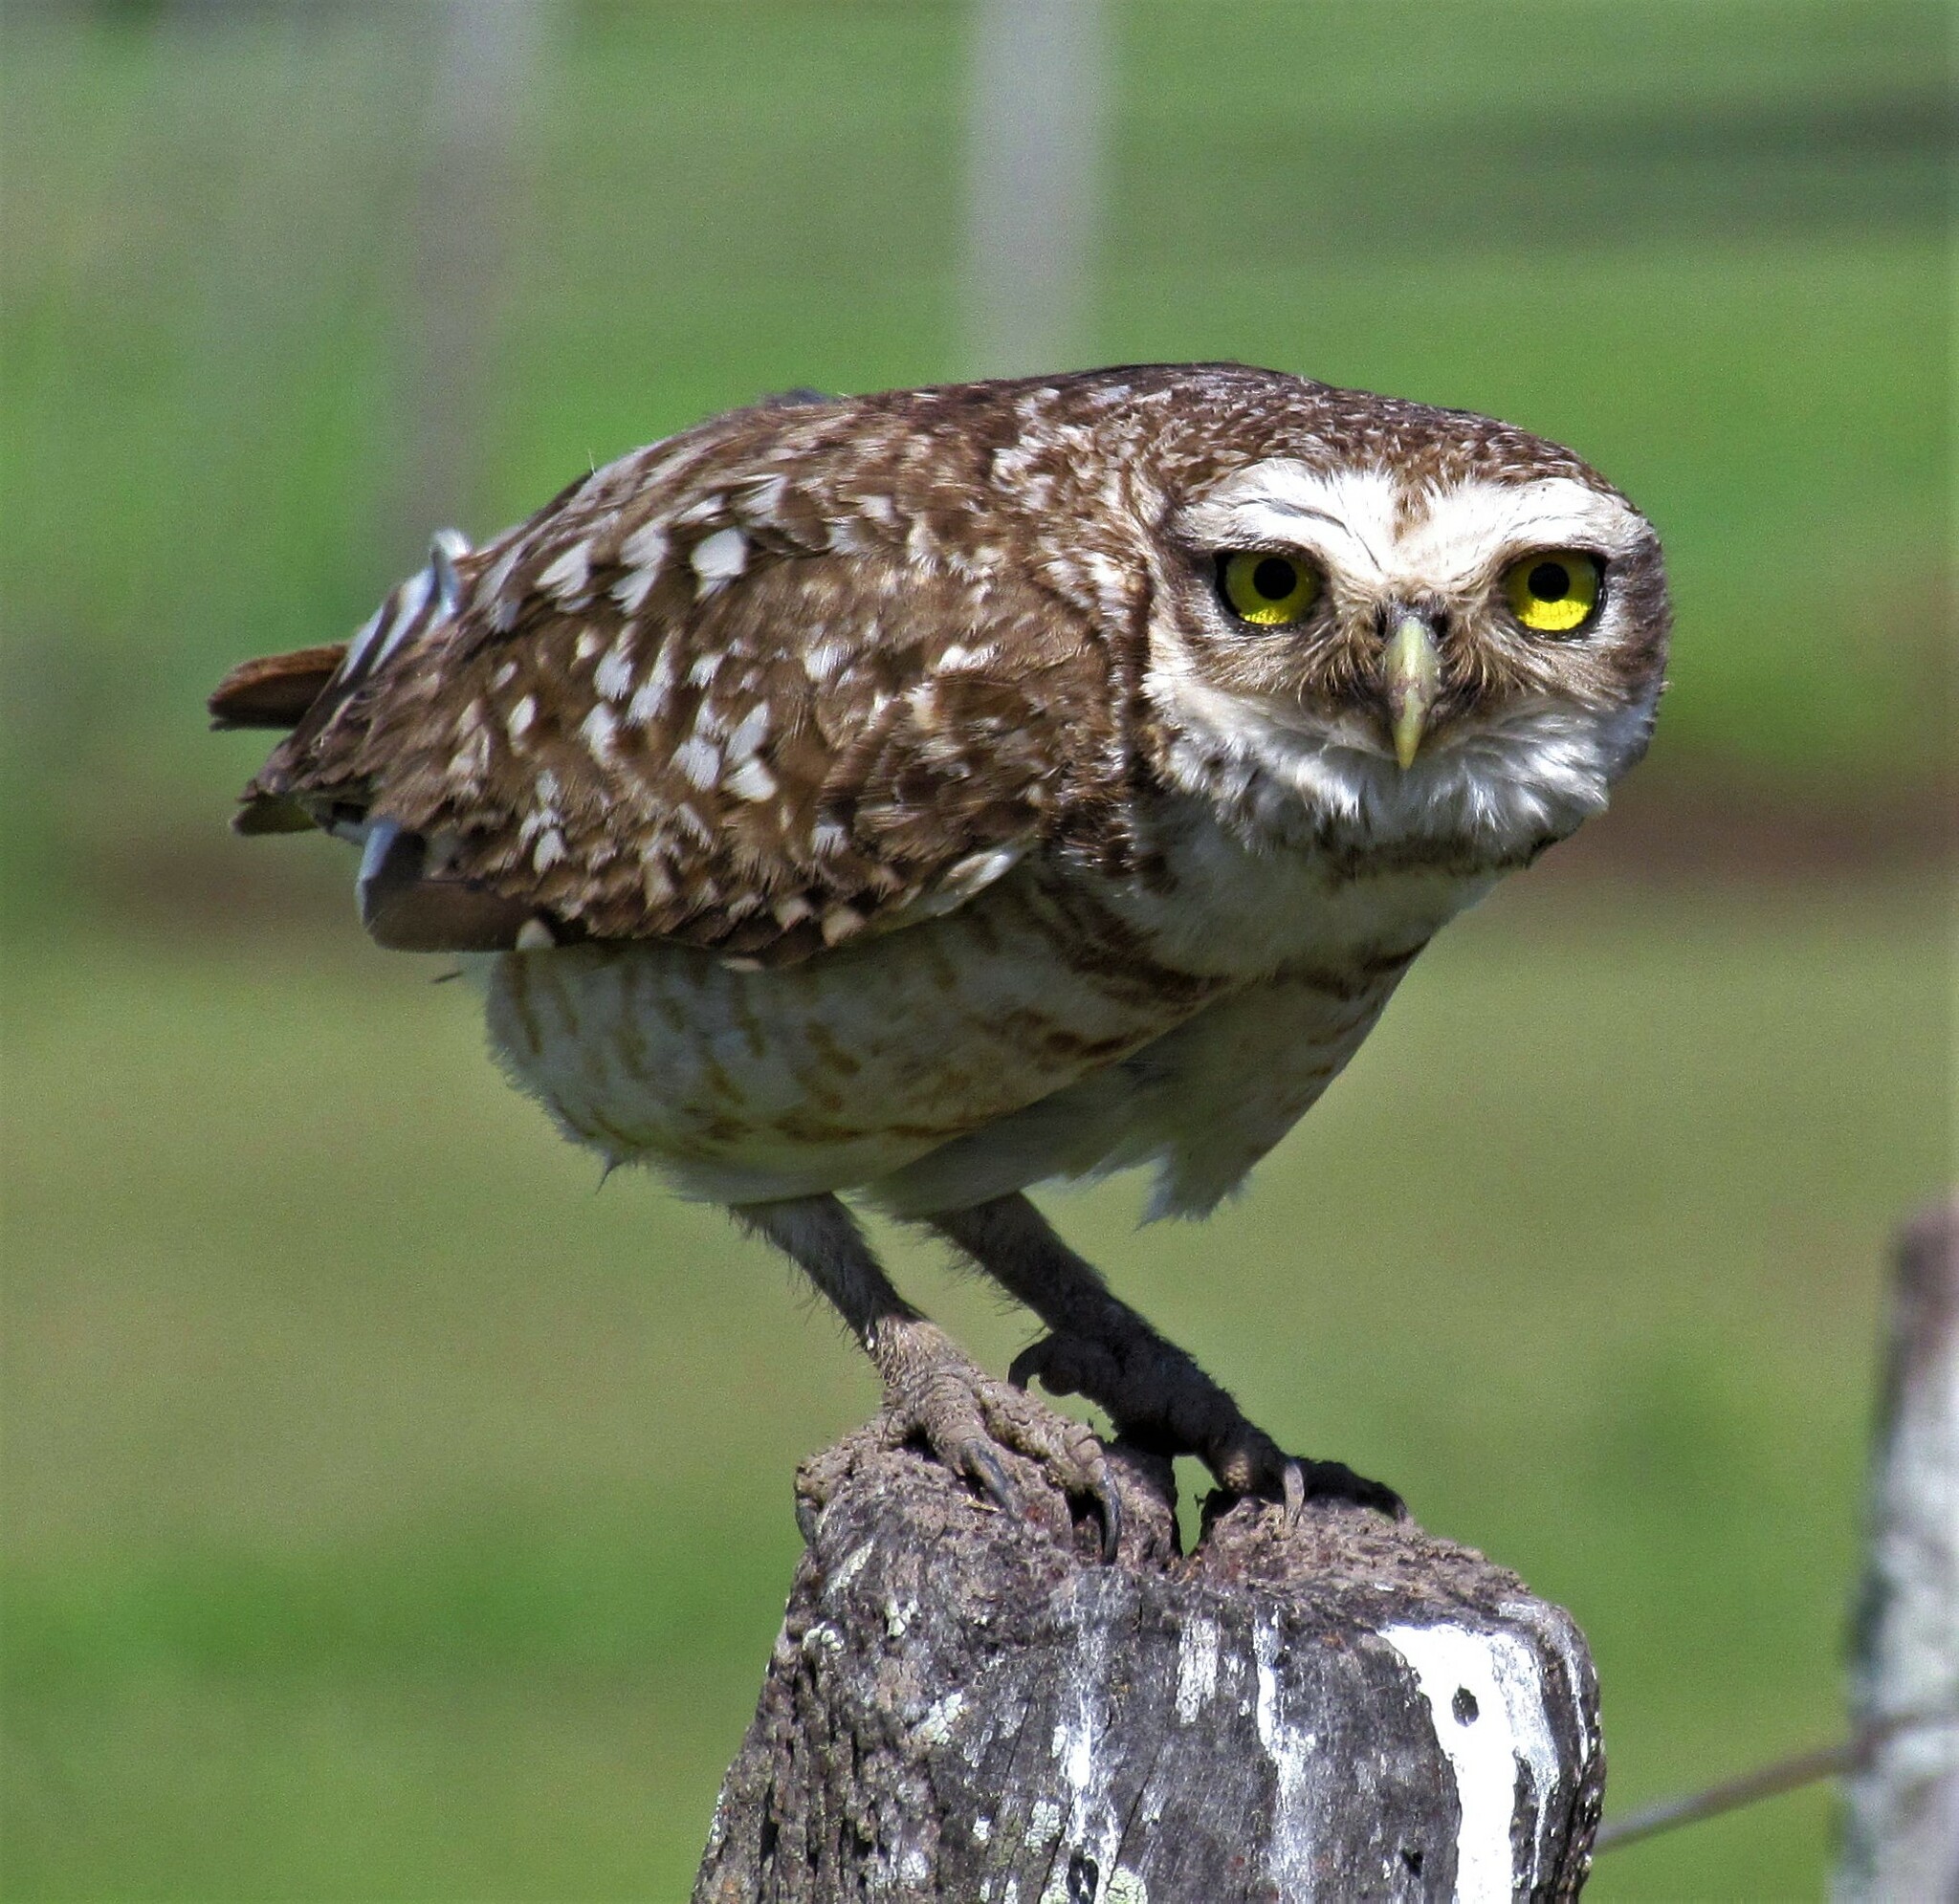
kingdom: Animalia
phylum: Chordata
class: Aves
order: Strigiformes
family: Strigidae
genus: Athene
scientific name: Athene cunicularia
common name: Burrowing owl
